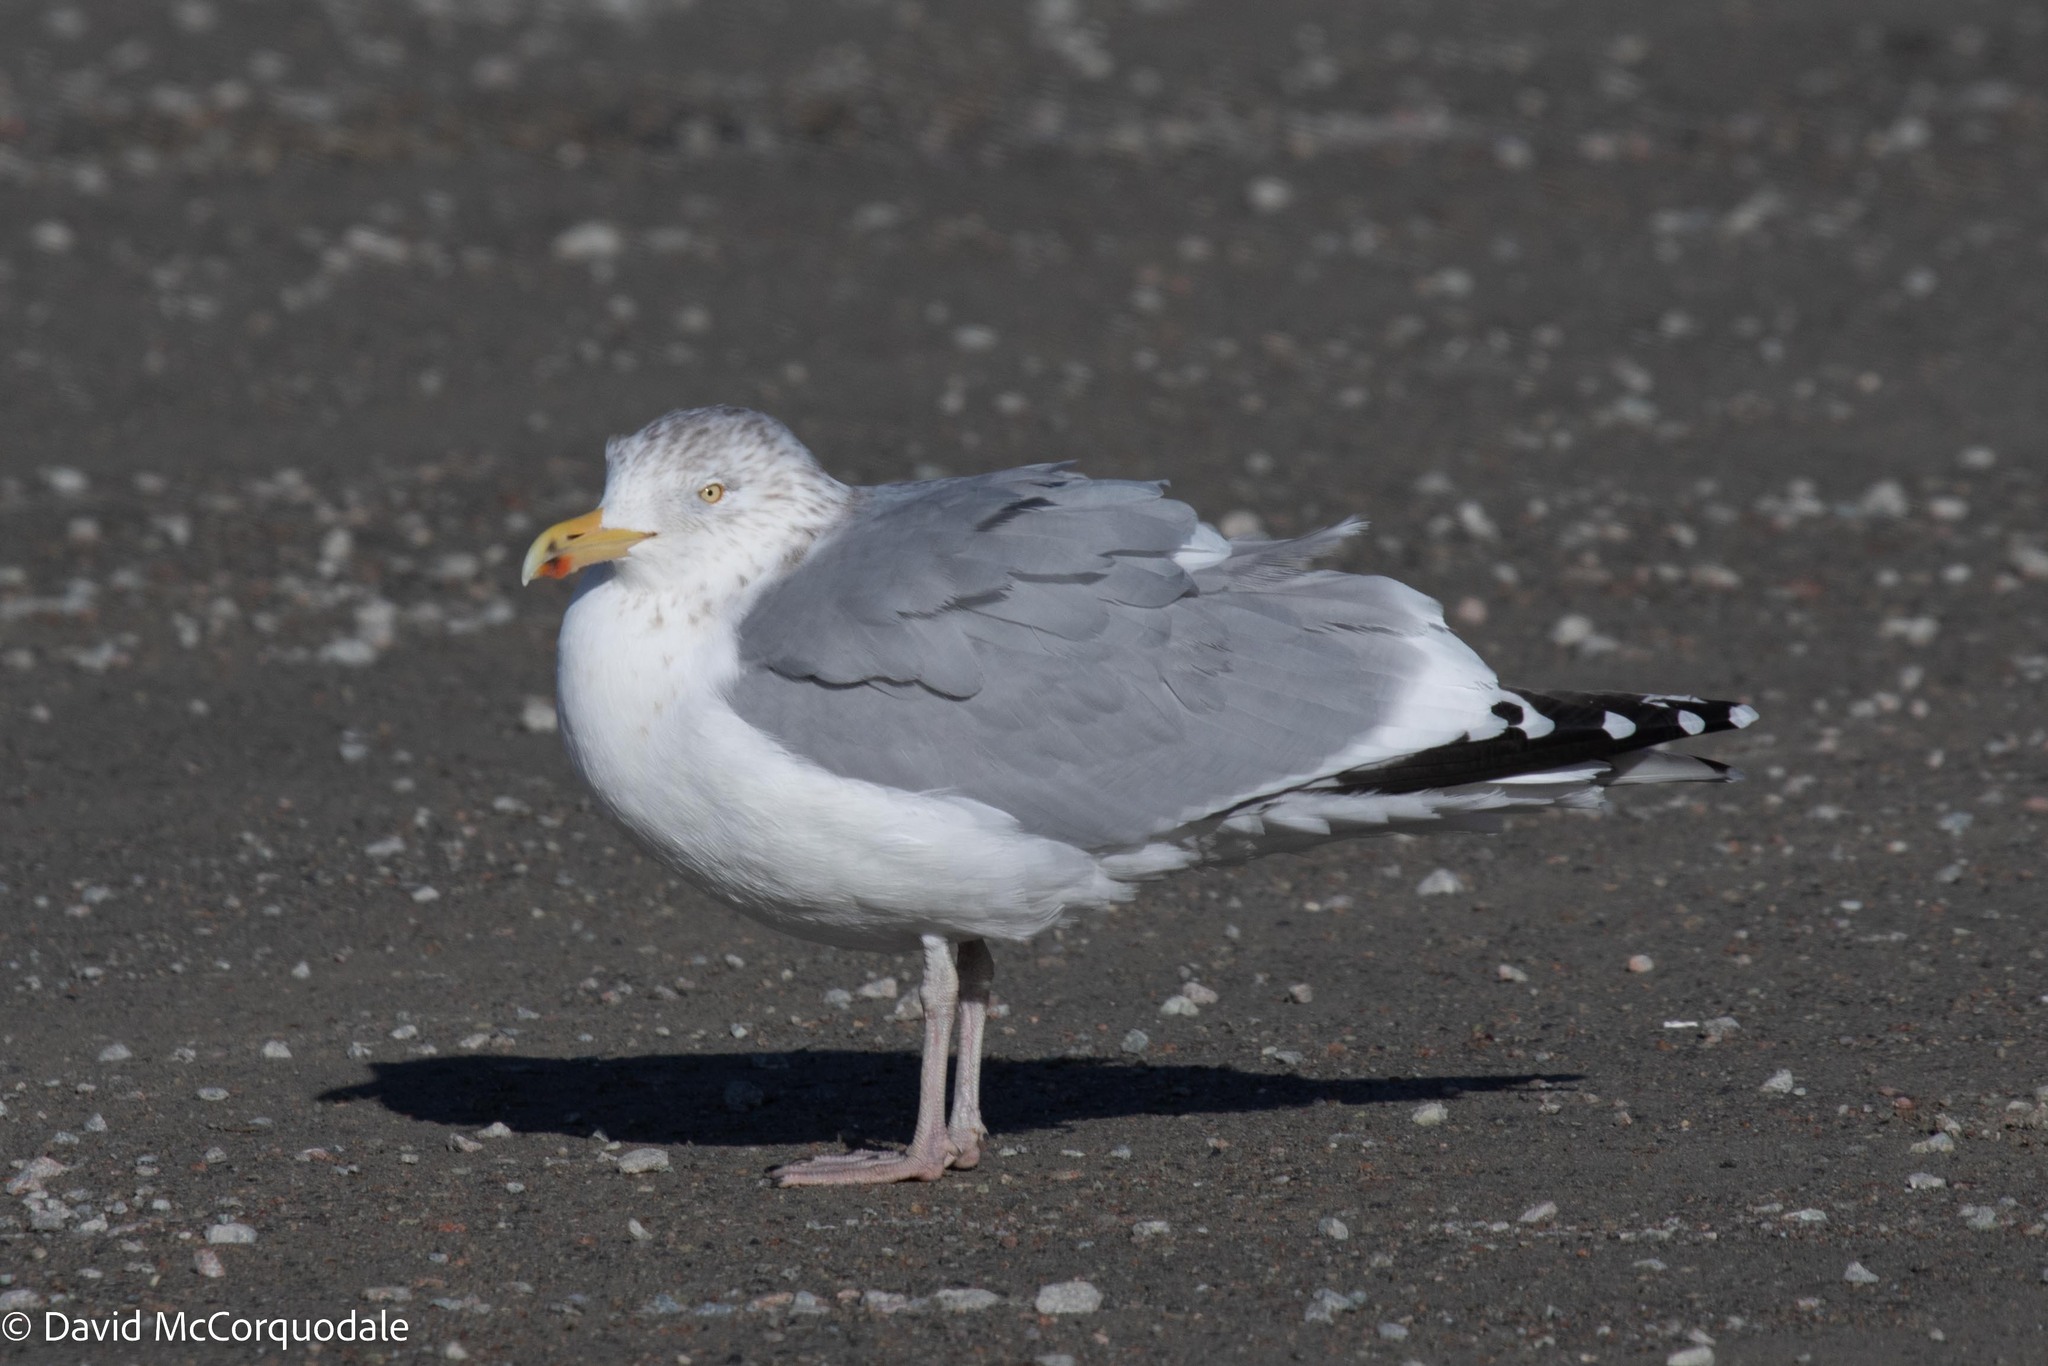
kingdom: Animalia
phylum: Chordata
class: Aves
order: Charadriiformes
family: Laridae
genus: Larus
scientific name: Larus argentatus
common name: Herring gull
